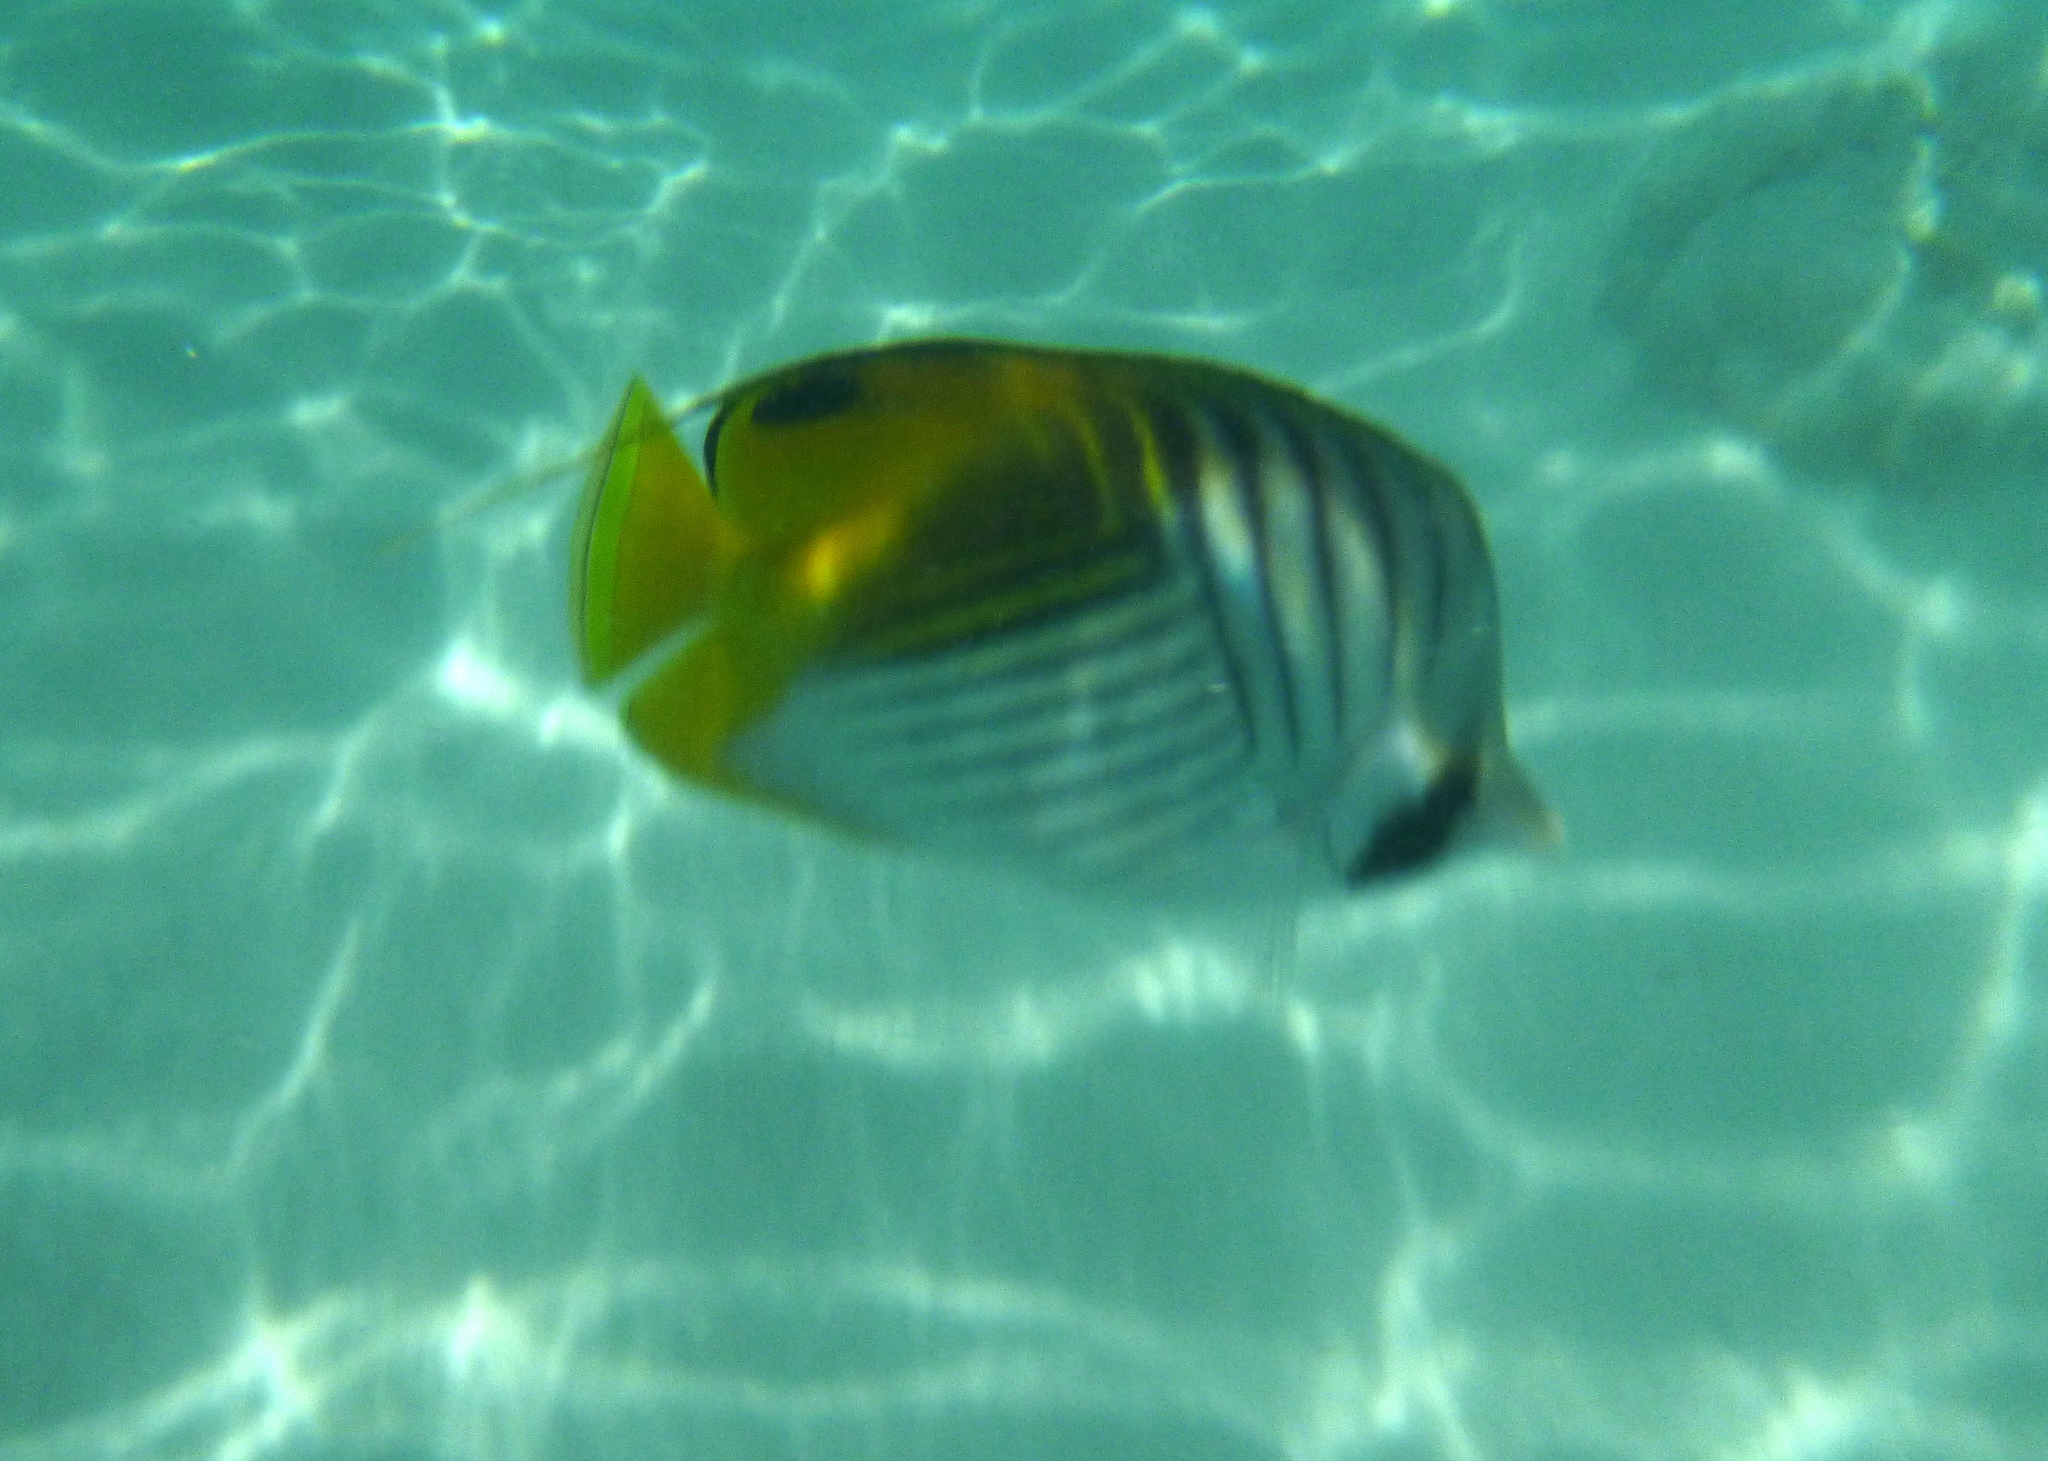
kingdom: Animalia
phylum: Chordata
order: Perciformes
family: Chaetodontidae
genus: Chaetodon
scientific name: Chaetodon auriga
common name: Threadfin butterflyfish
